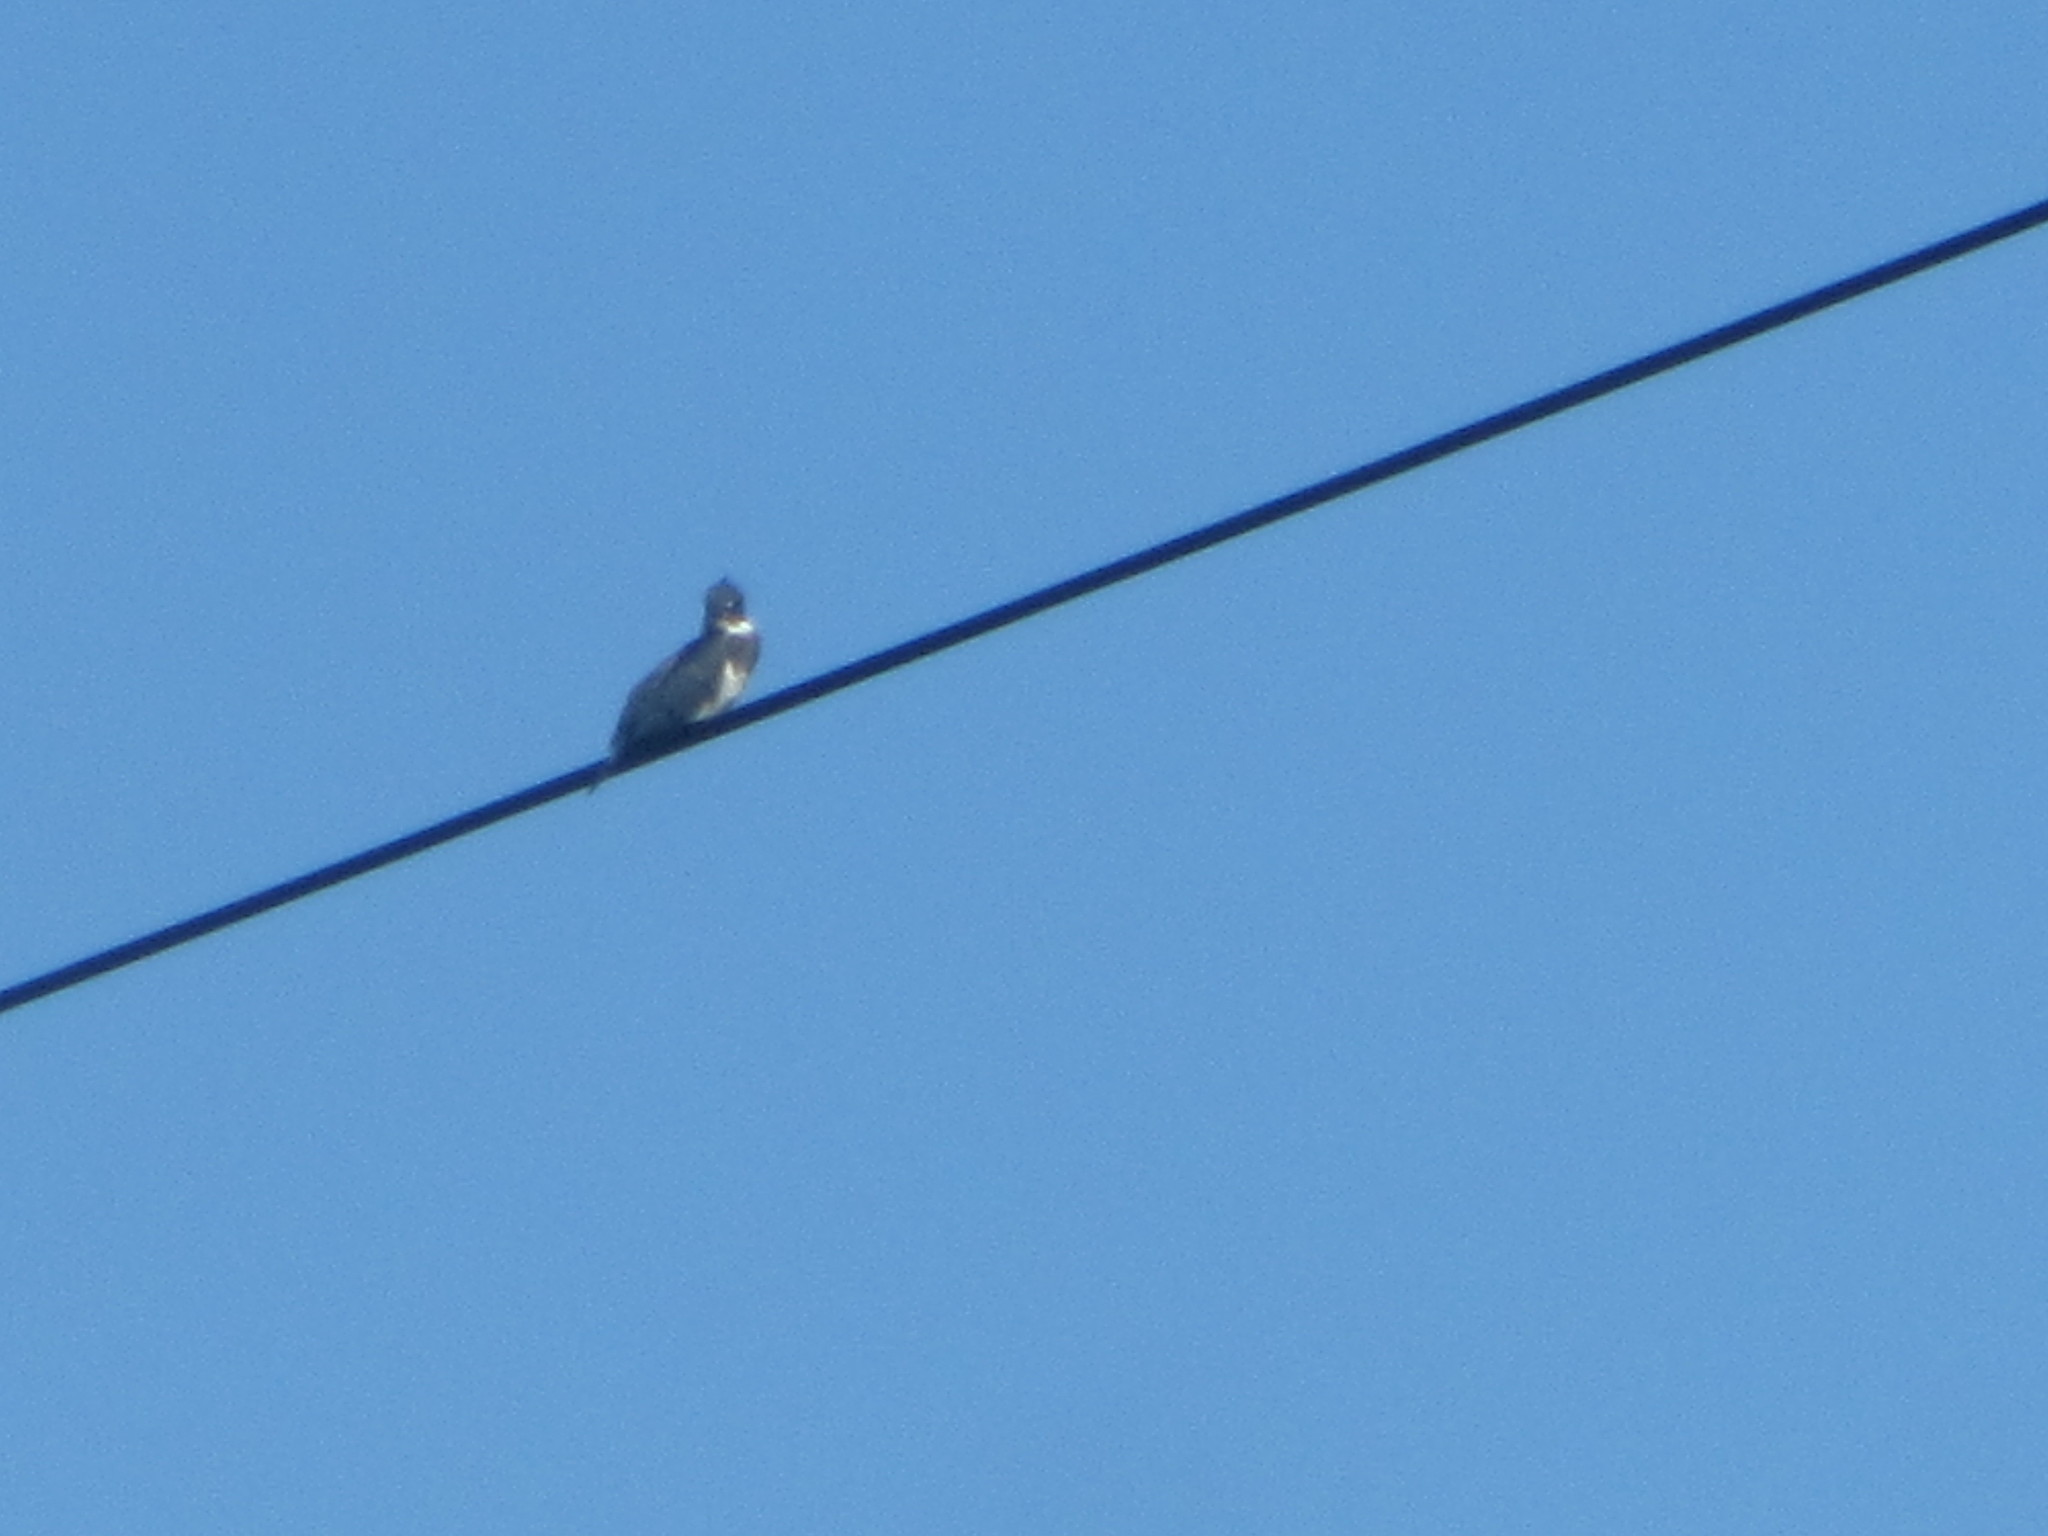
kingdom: Animalia
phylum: Chordata
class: Aves
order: Coraciiformes
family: Alcedinidae
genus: Megaceryle
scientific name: Megaceryle alcyon
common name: Belted kingfisher
